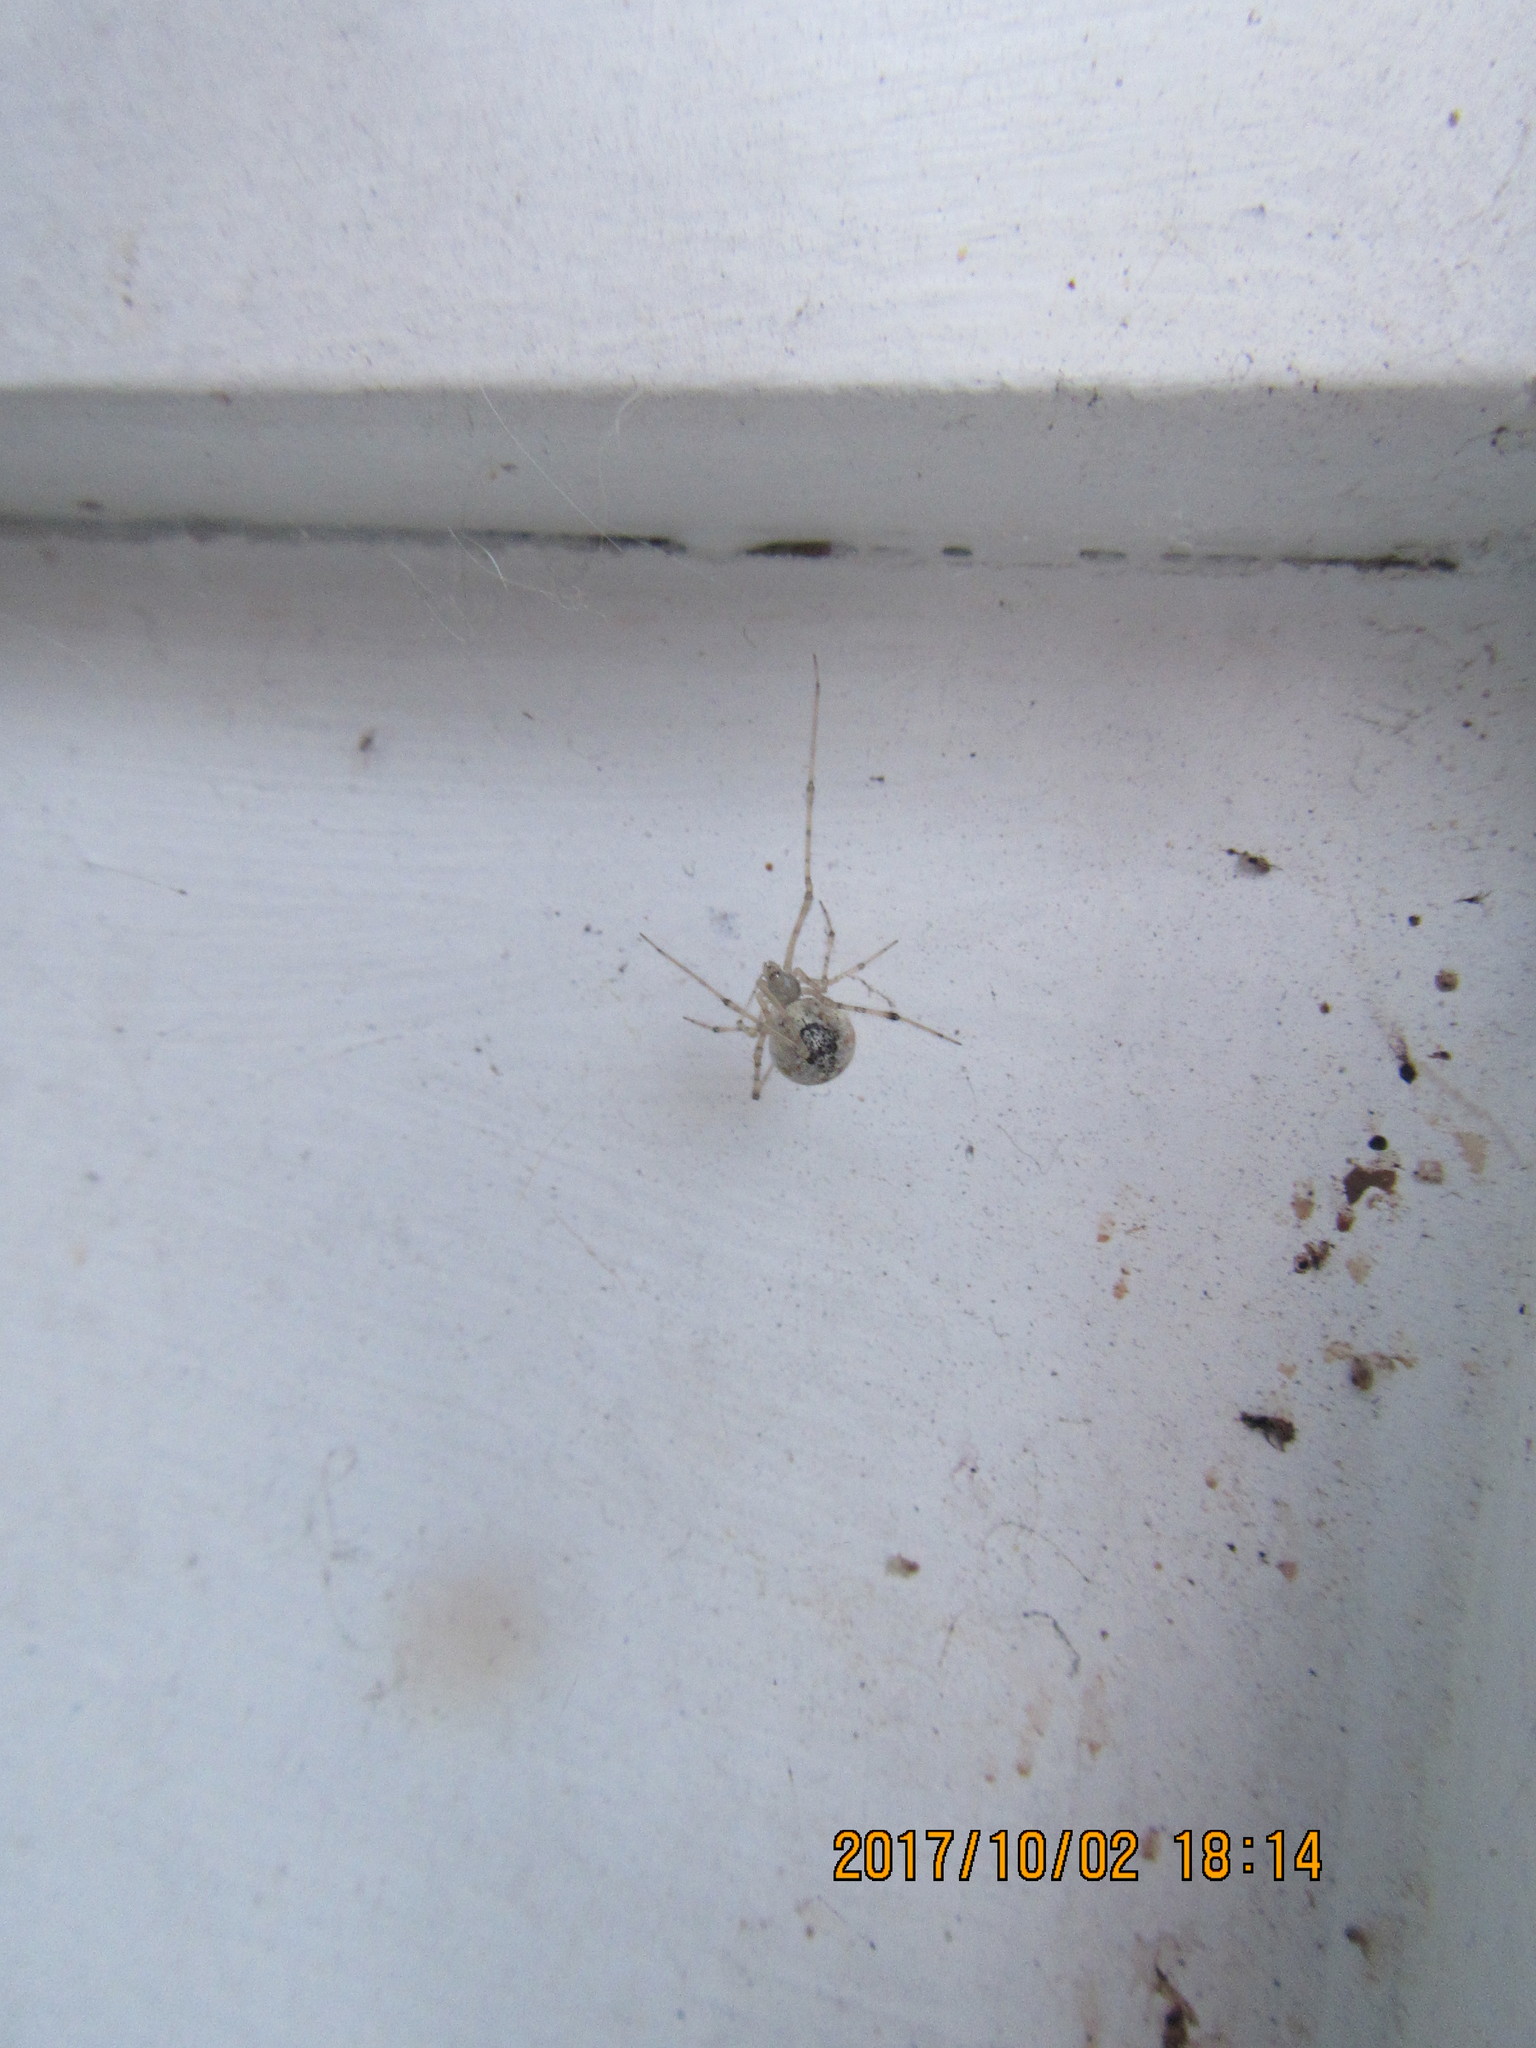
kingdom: Animalia
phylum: Arthropoda
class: Arachnida
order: Araneae
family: Theridiidae
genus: Cryptachaea
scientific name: Cryptachaea gigantipes
